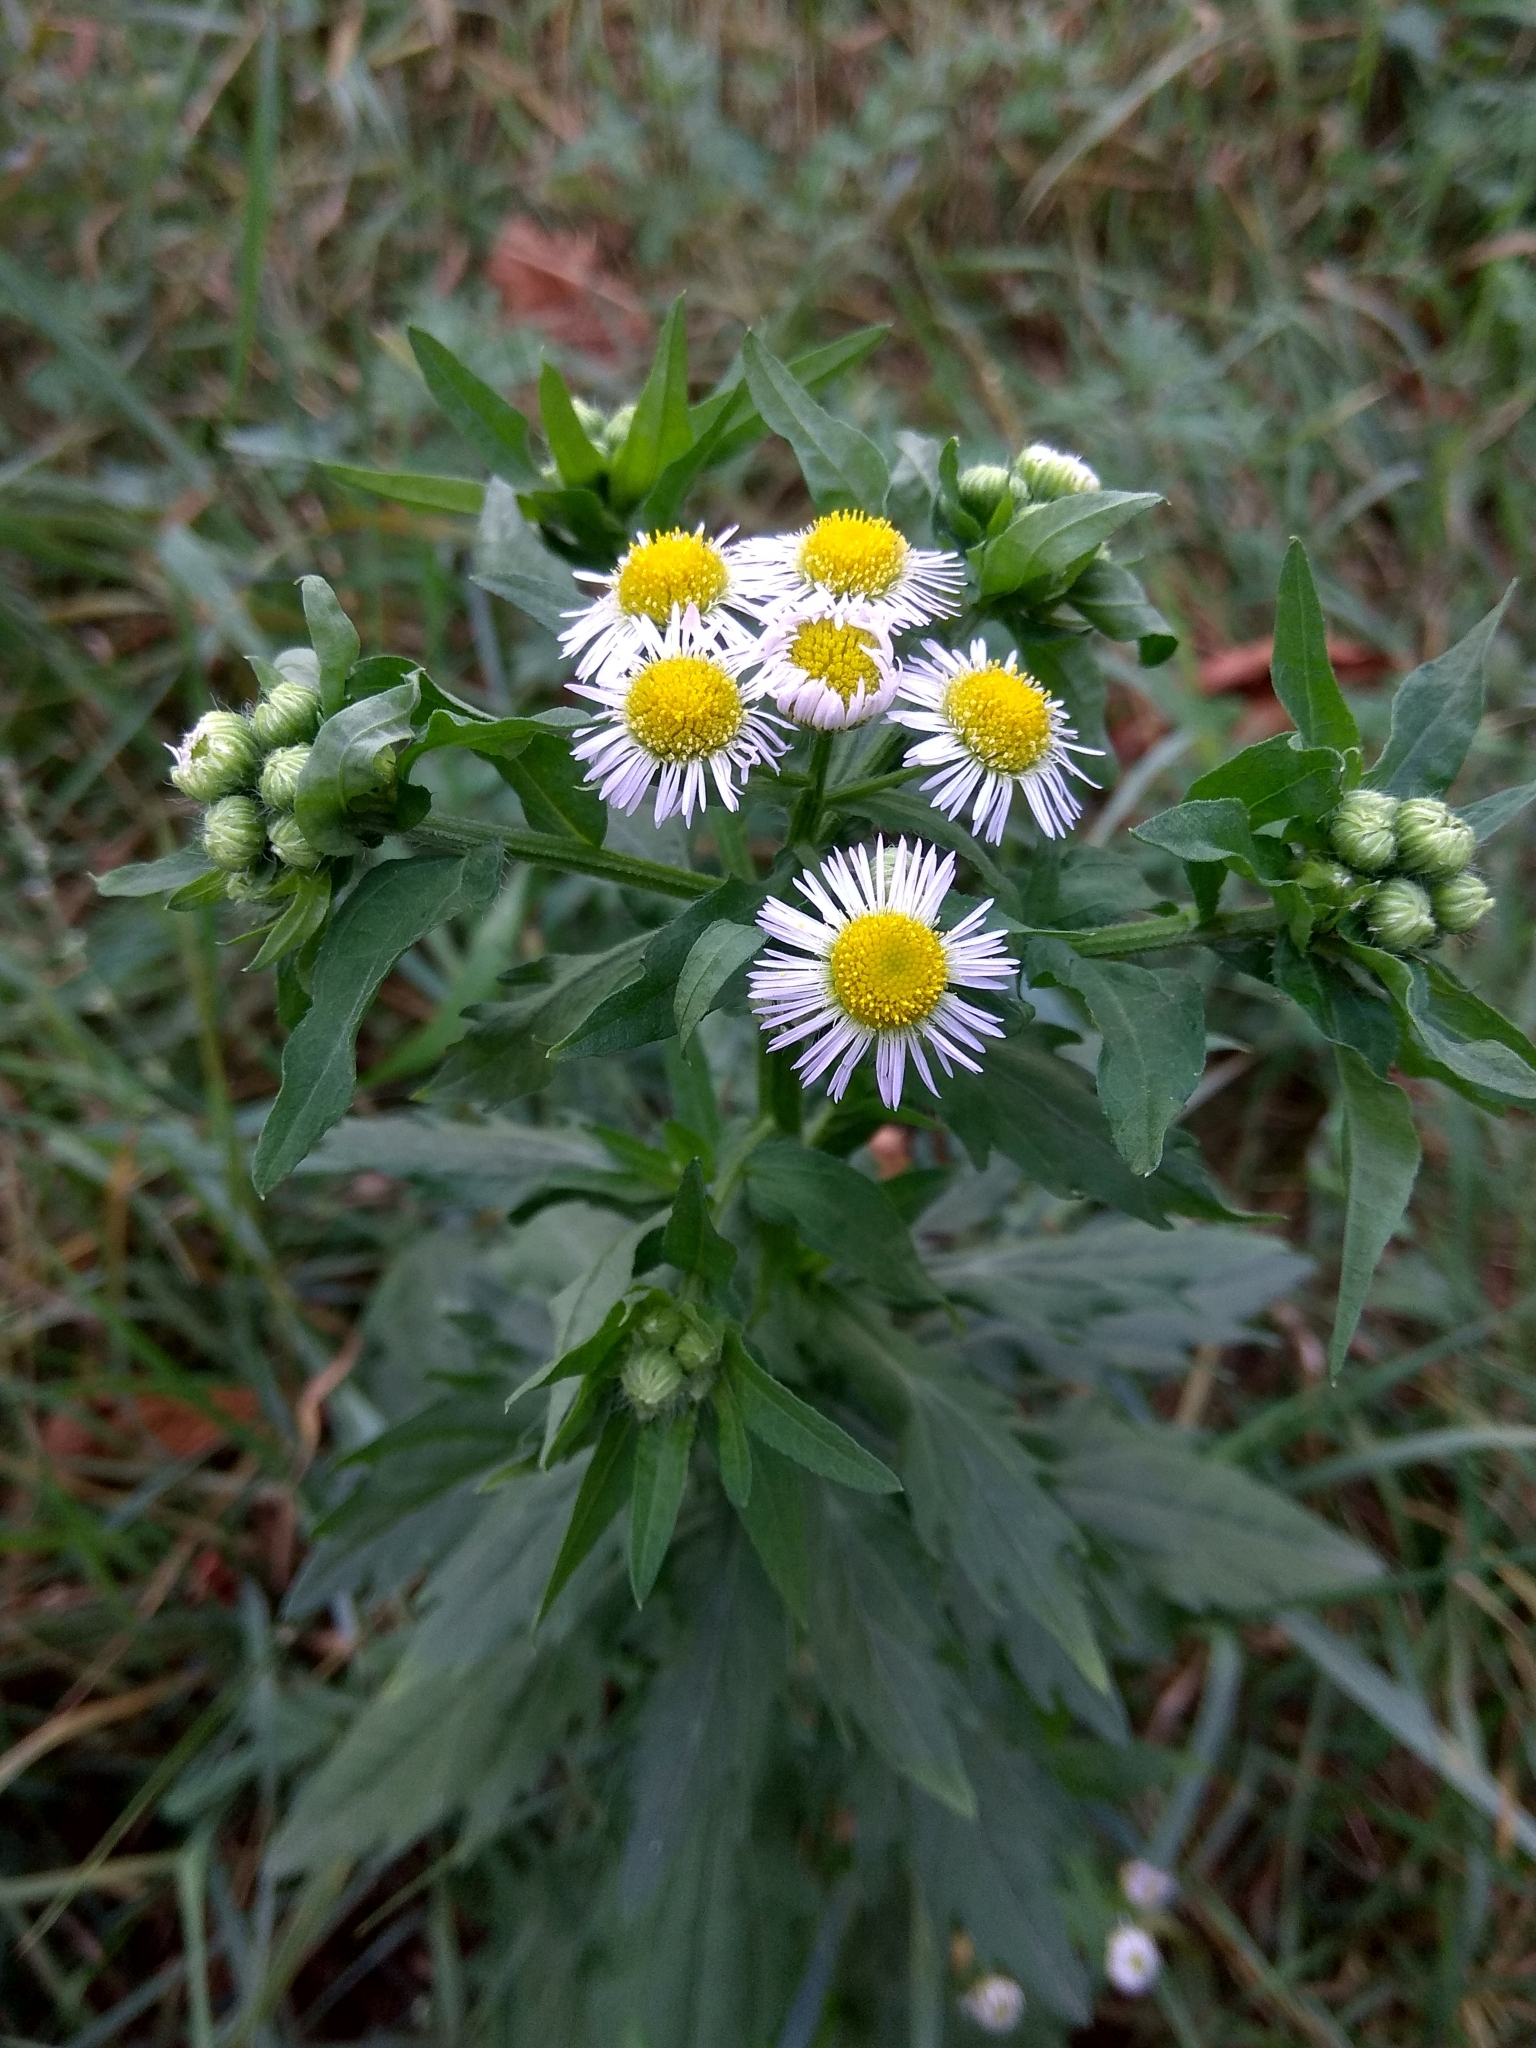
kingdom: Plantae
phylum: Tracheophyta
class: Magnoliopsida
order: Asterales
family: Asteraceae
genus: Erigeron
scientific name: Erigeron annuus
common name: Tall fleabane
